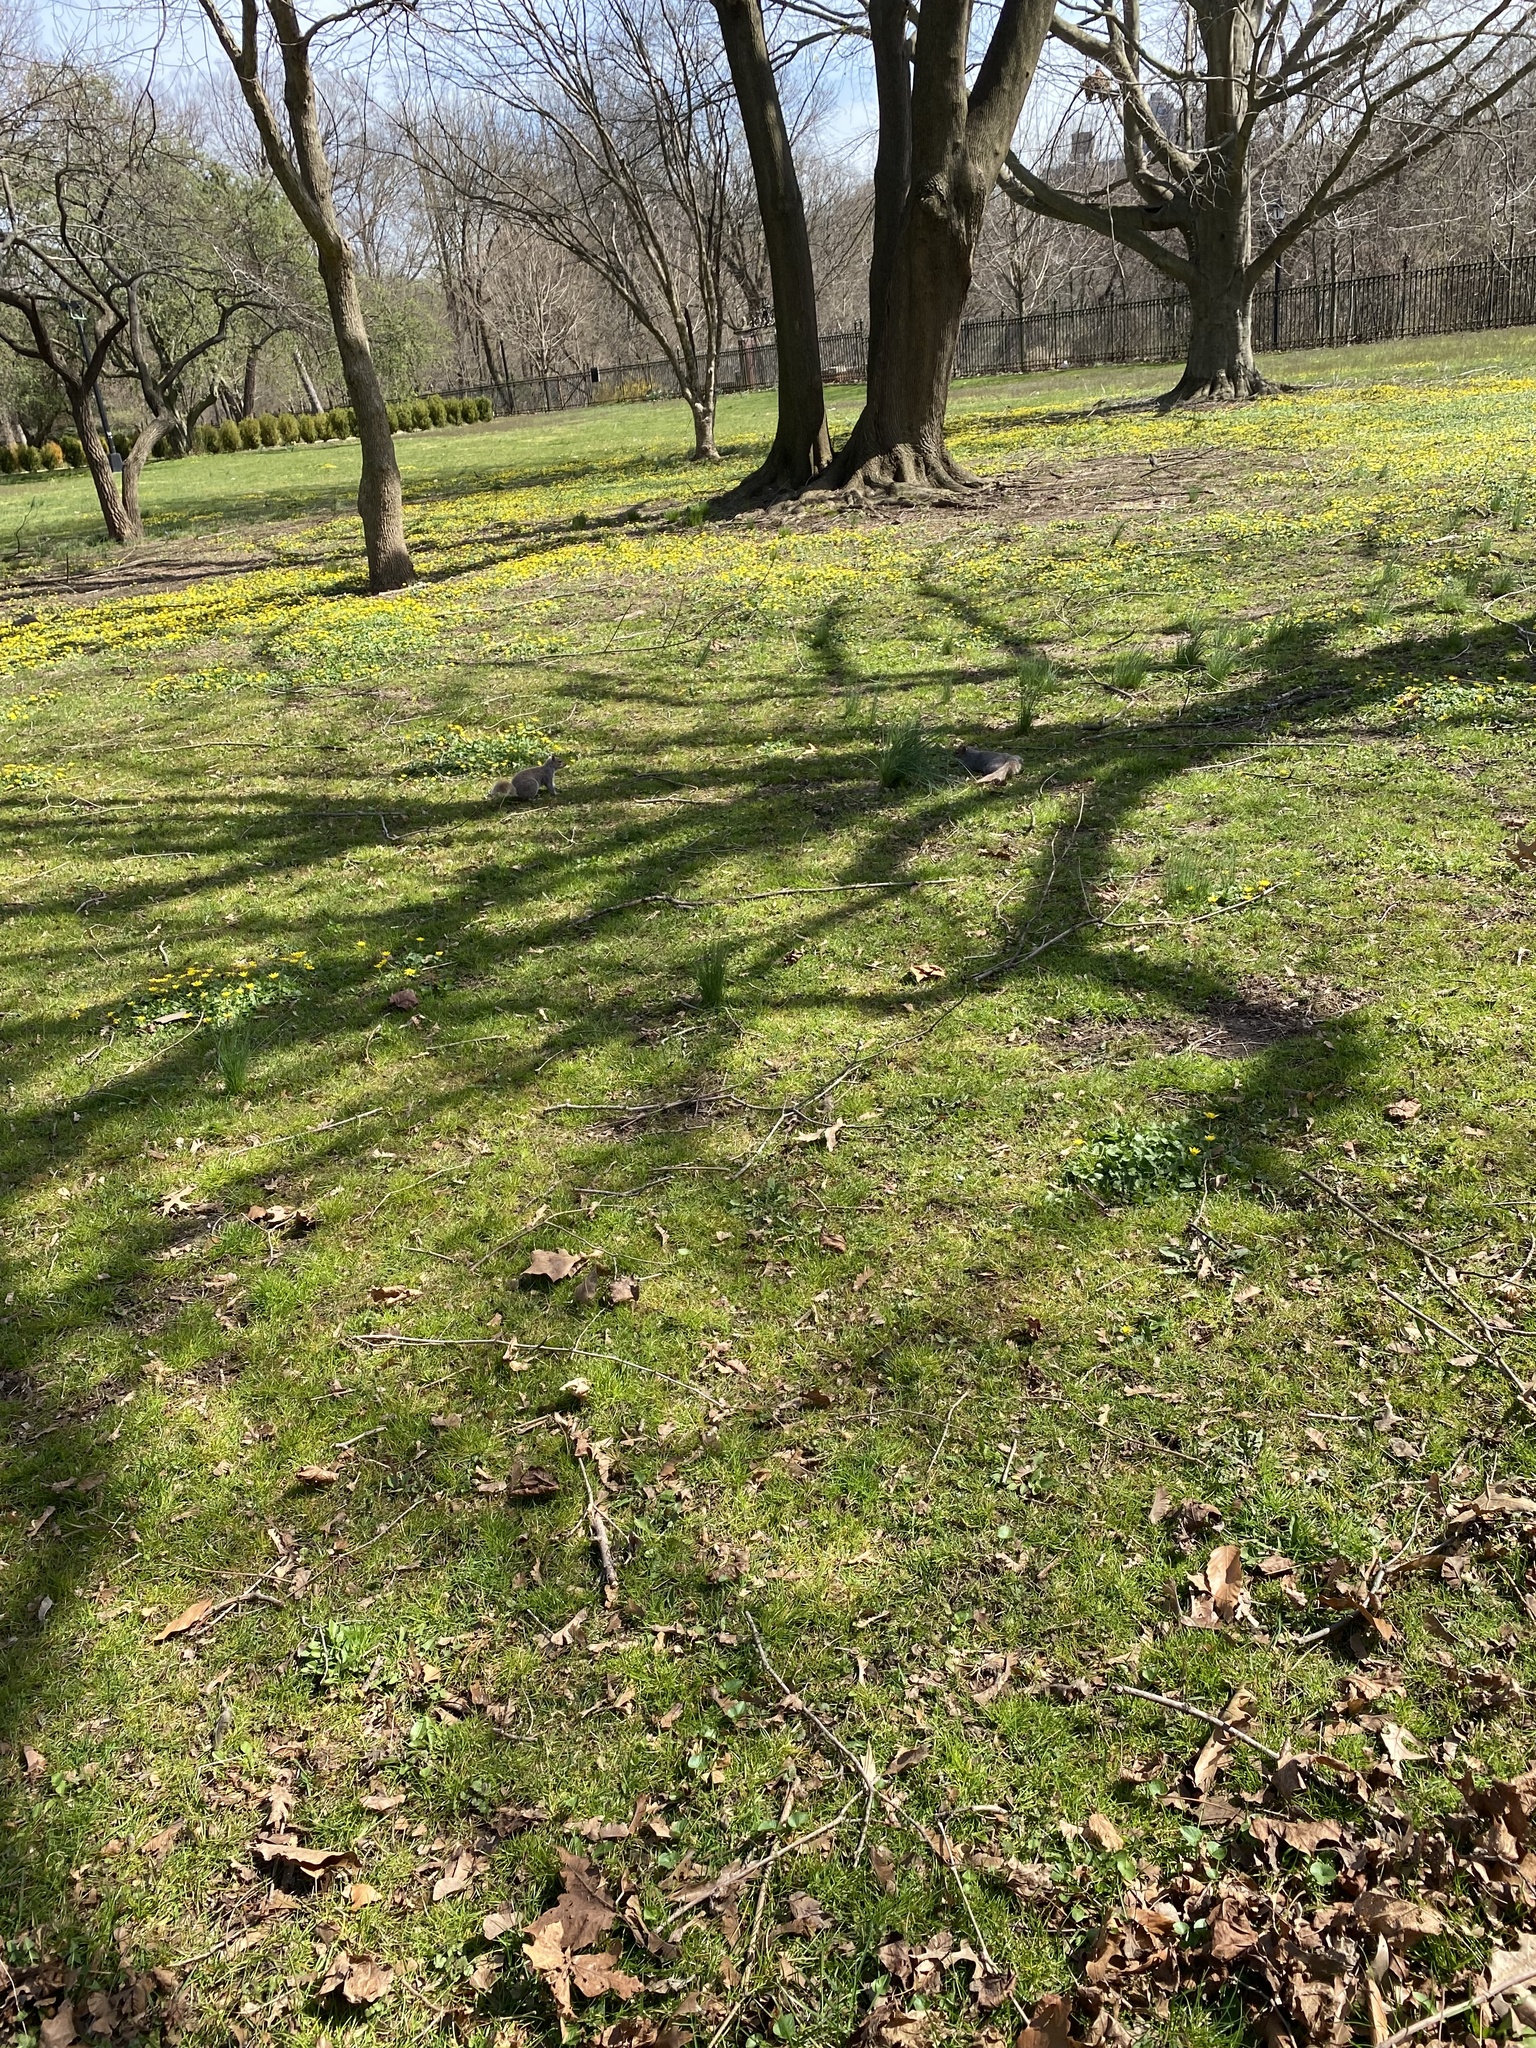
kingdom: Animalia
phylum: Chordata
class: Mammalia
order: Rodentia
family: Sciuridae
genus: Sciurus
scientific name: Sciurus carolinensis
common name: Eastern gray squirrel
